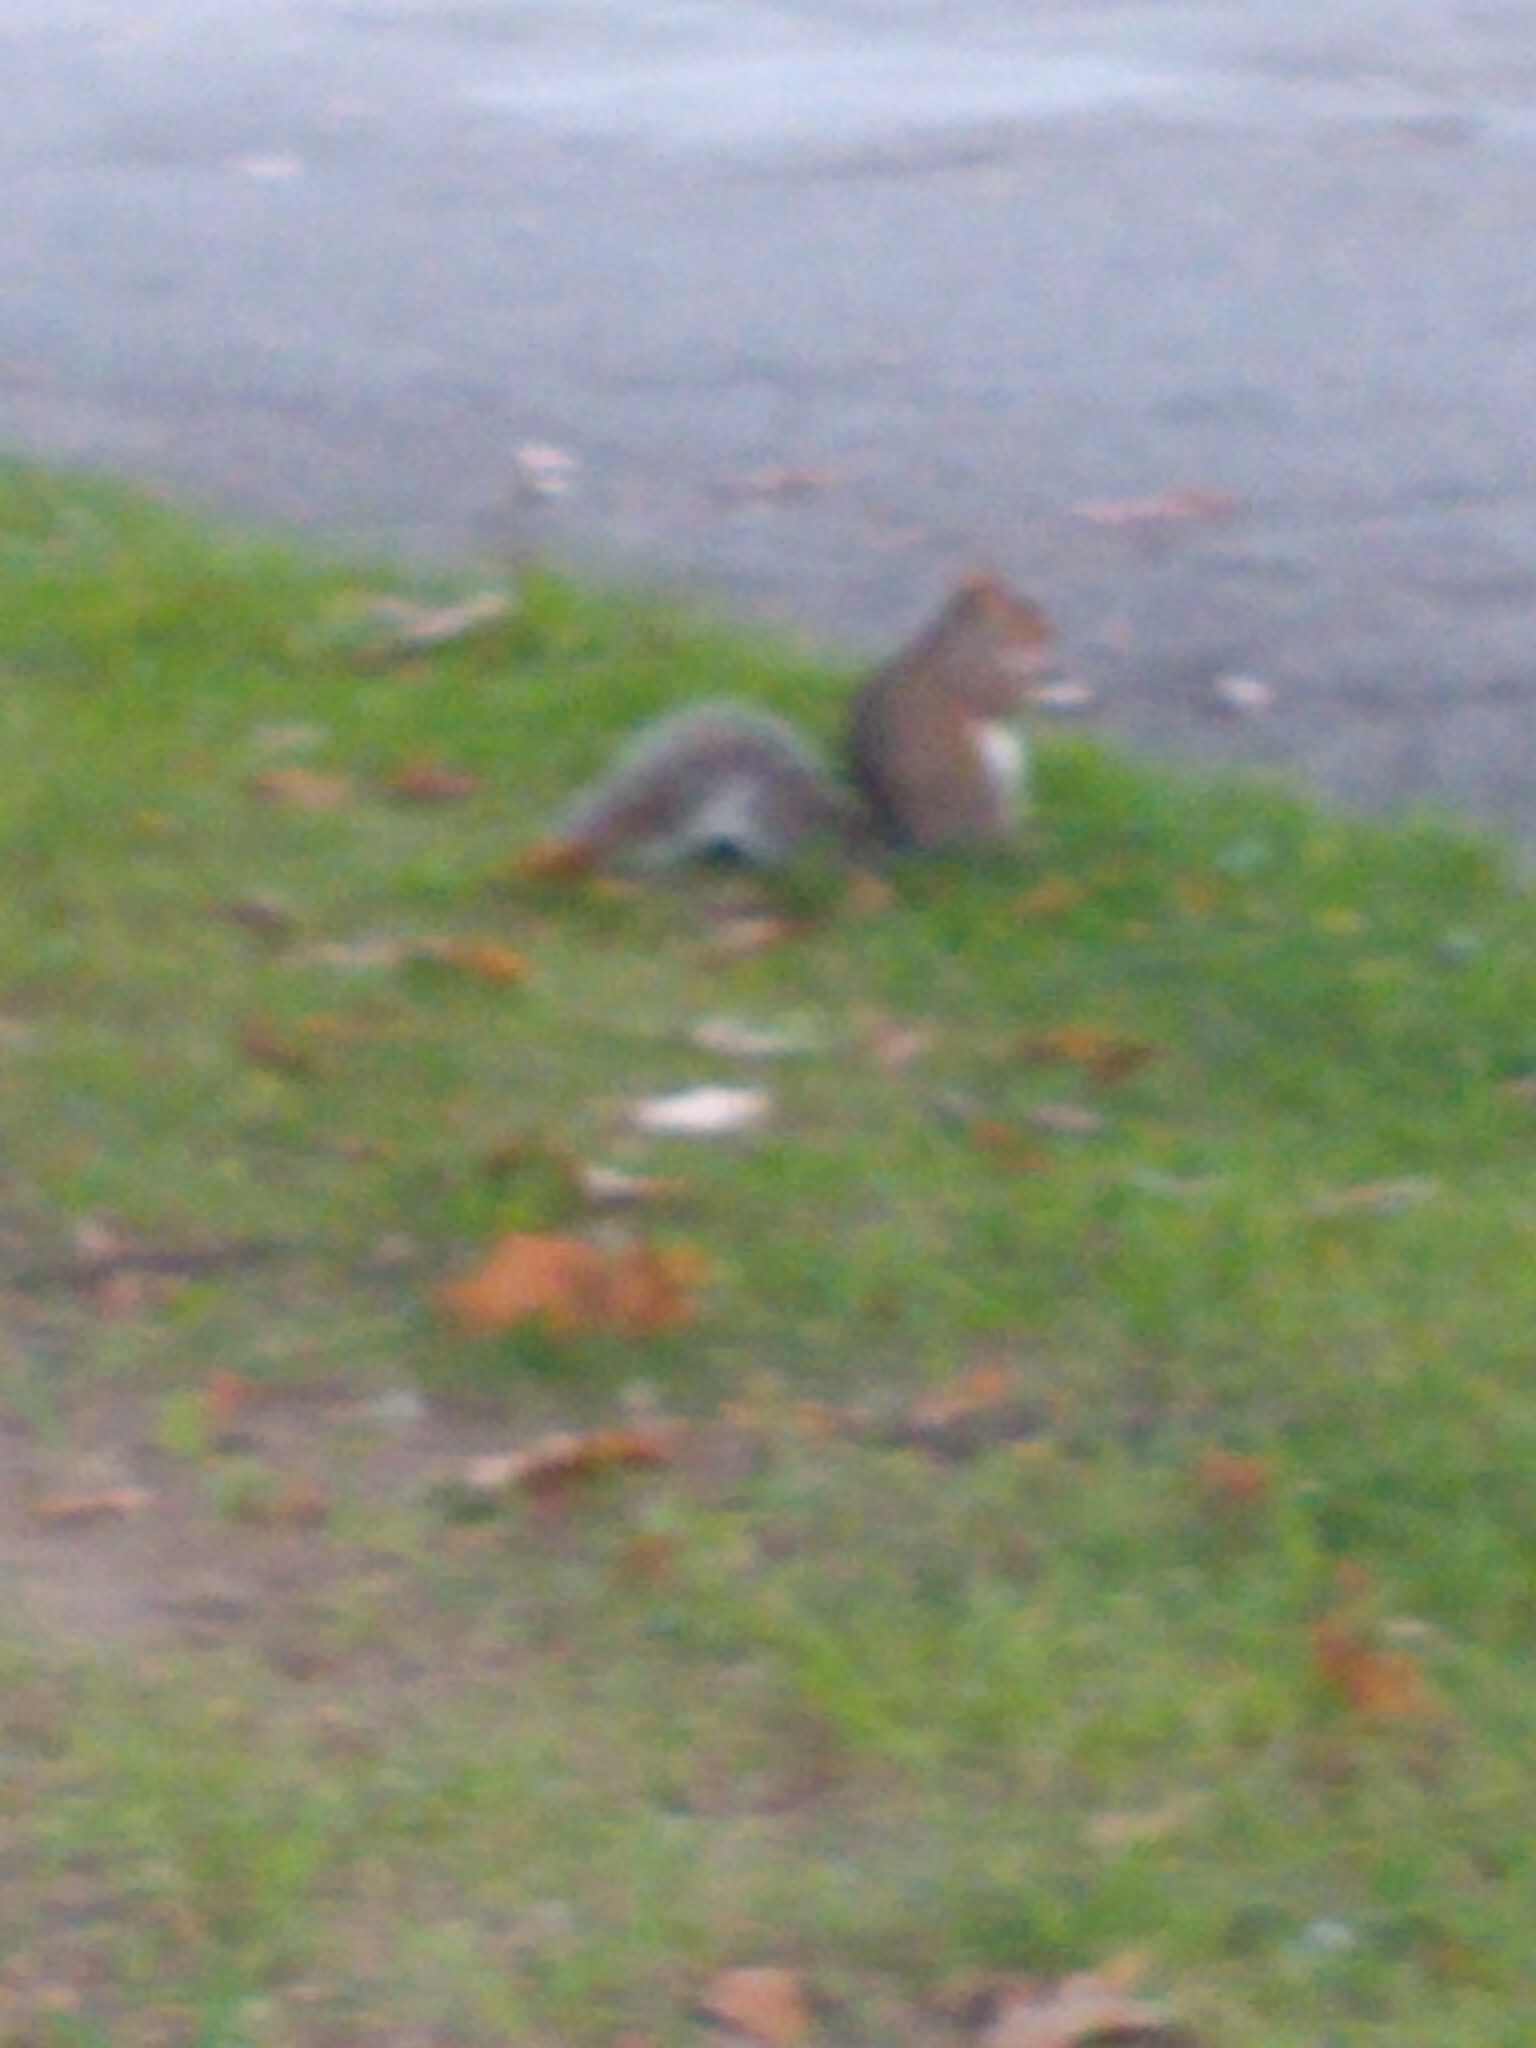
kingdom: Animalia
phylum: Chordata
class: Mammalia
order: Rodentia
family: Sciuridae
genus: Sciurus
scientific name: Sciurus carolinensis
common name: Eastern gray squirrel
